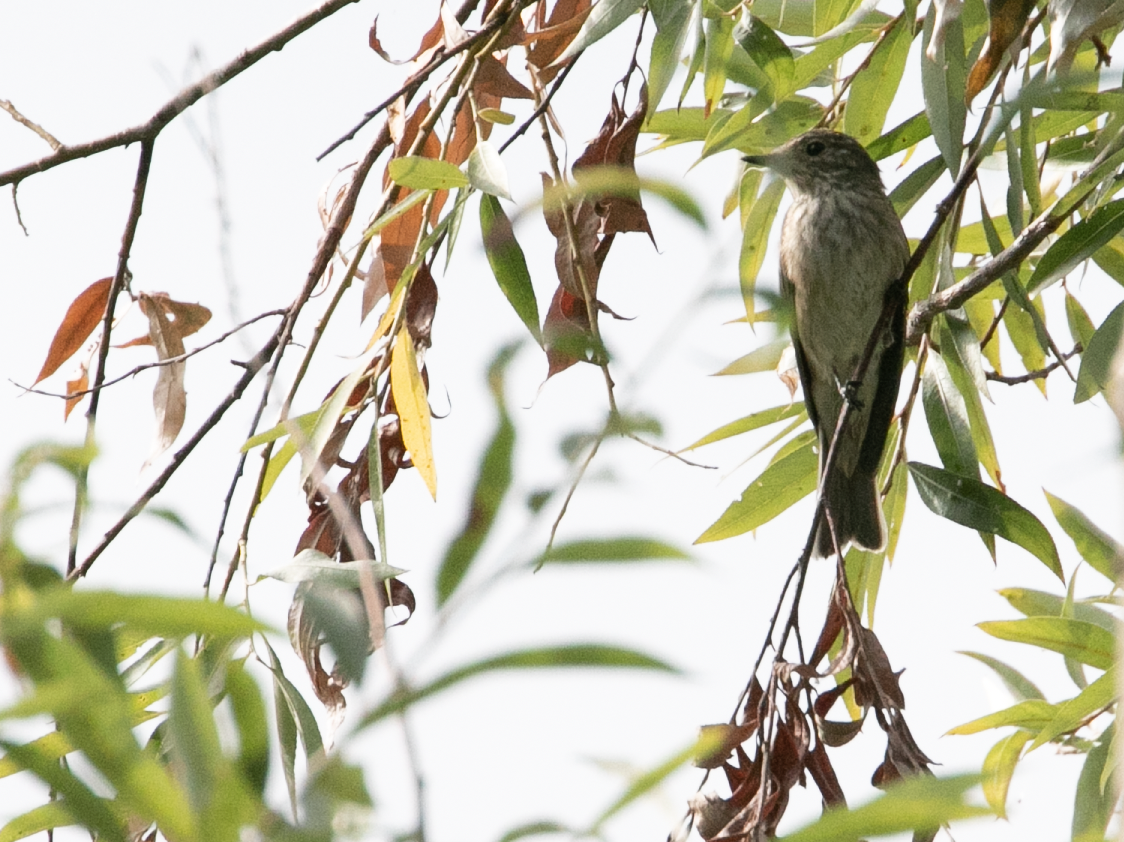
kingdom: Animalia
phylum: Chordata
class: Aves
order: Passeriformes
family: Muscicapidae
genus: Muscicapa
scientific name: Muscicapa striata
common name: Spotted flycatcher
